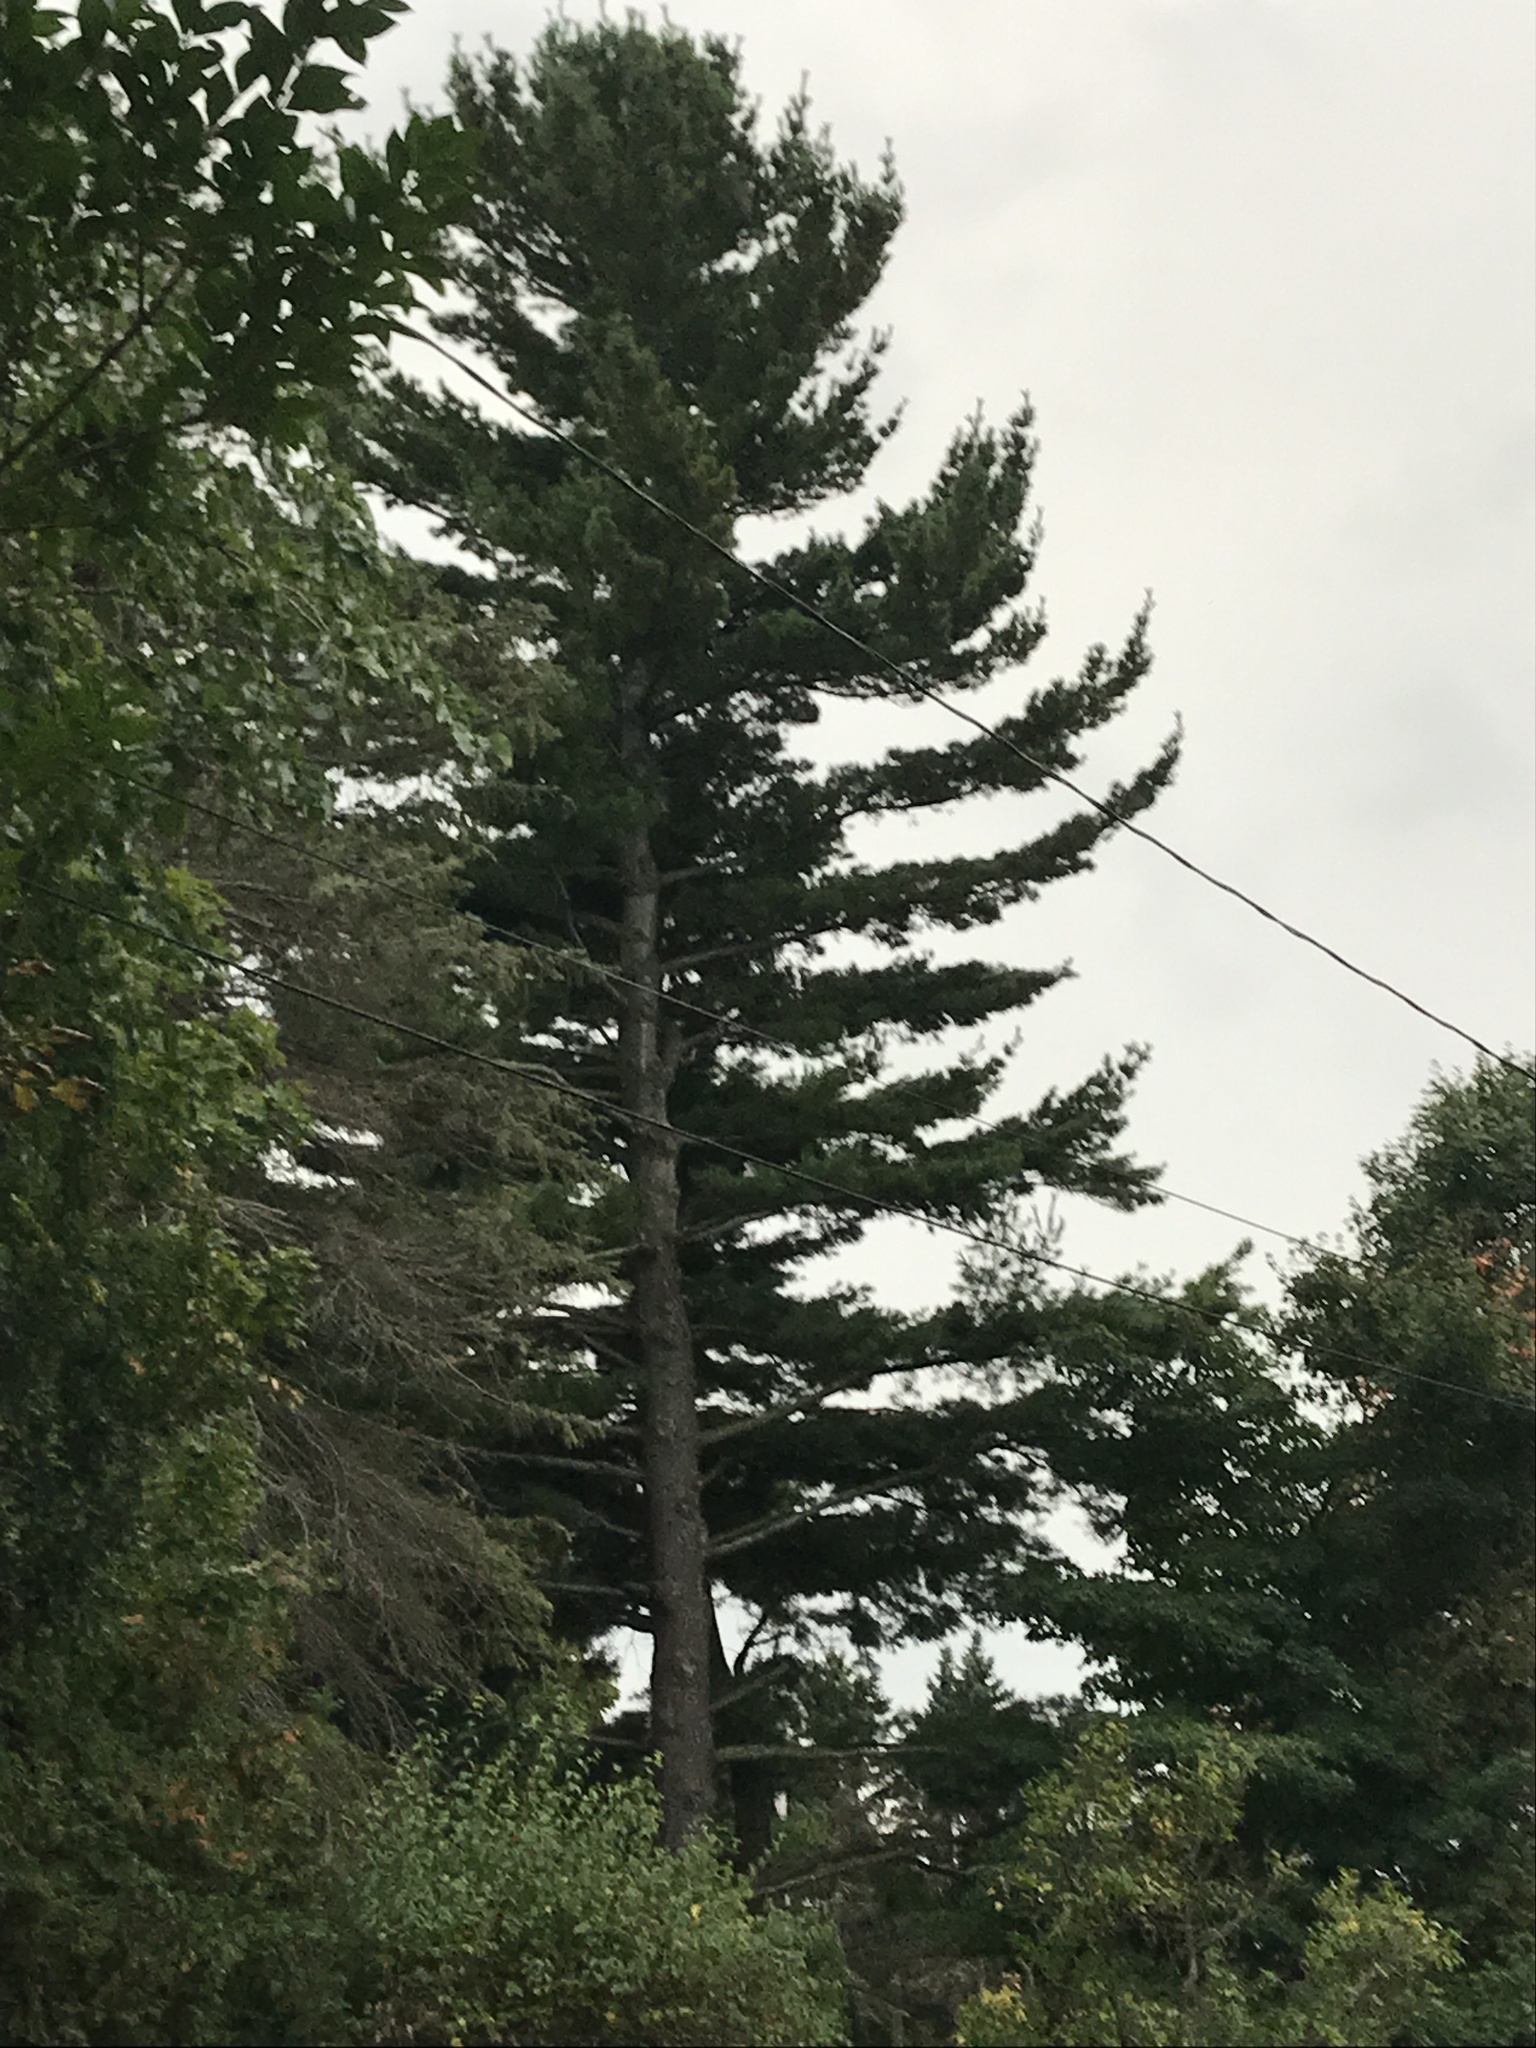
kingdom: Plantae
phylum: Tracheophyta
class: Pinopsida
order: Pinales
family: Pinaceae
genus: Pinus
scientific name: Pinus strobus
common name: Weymouth pine
